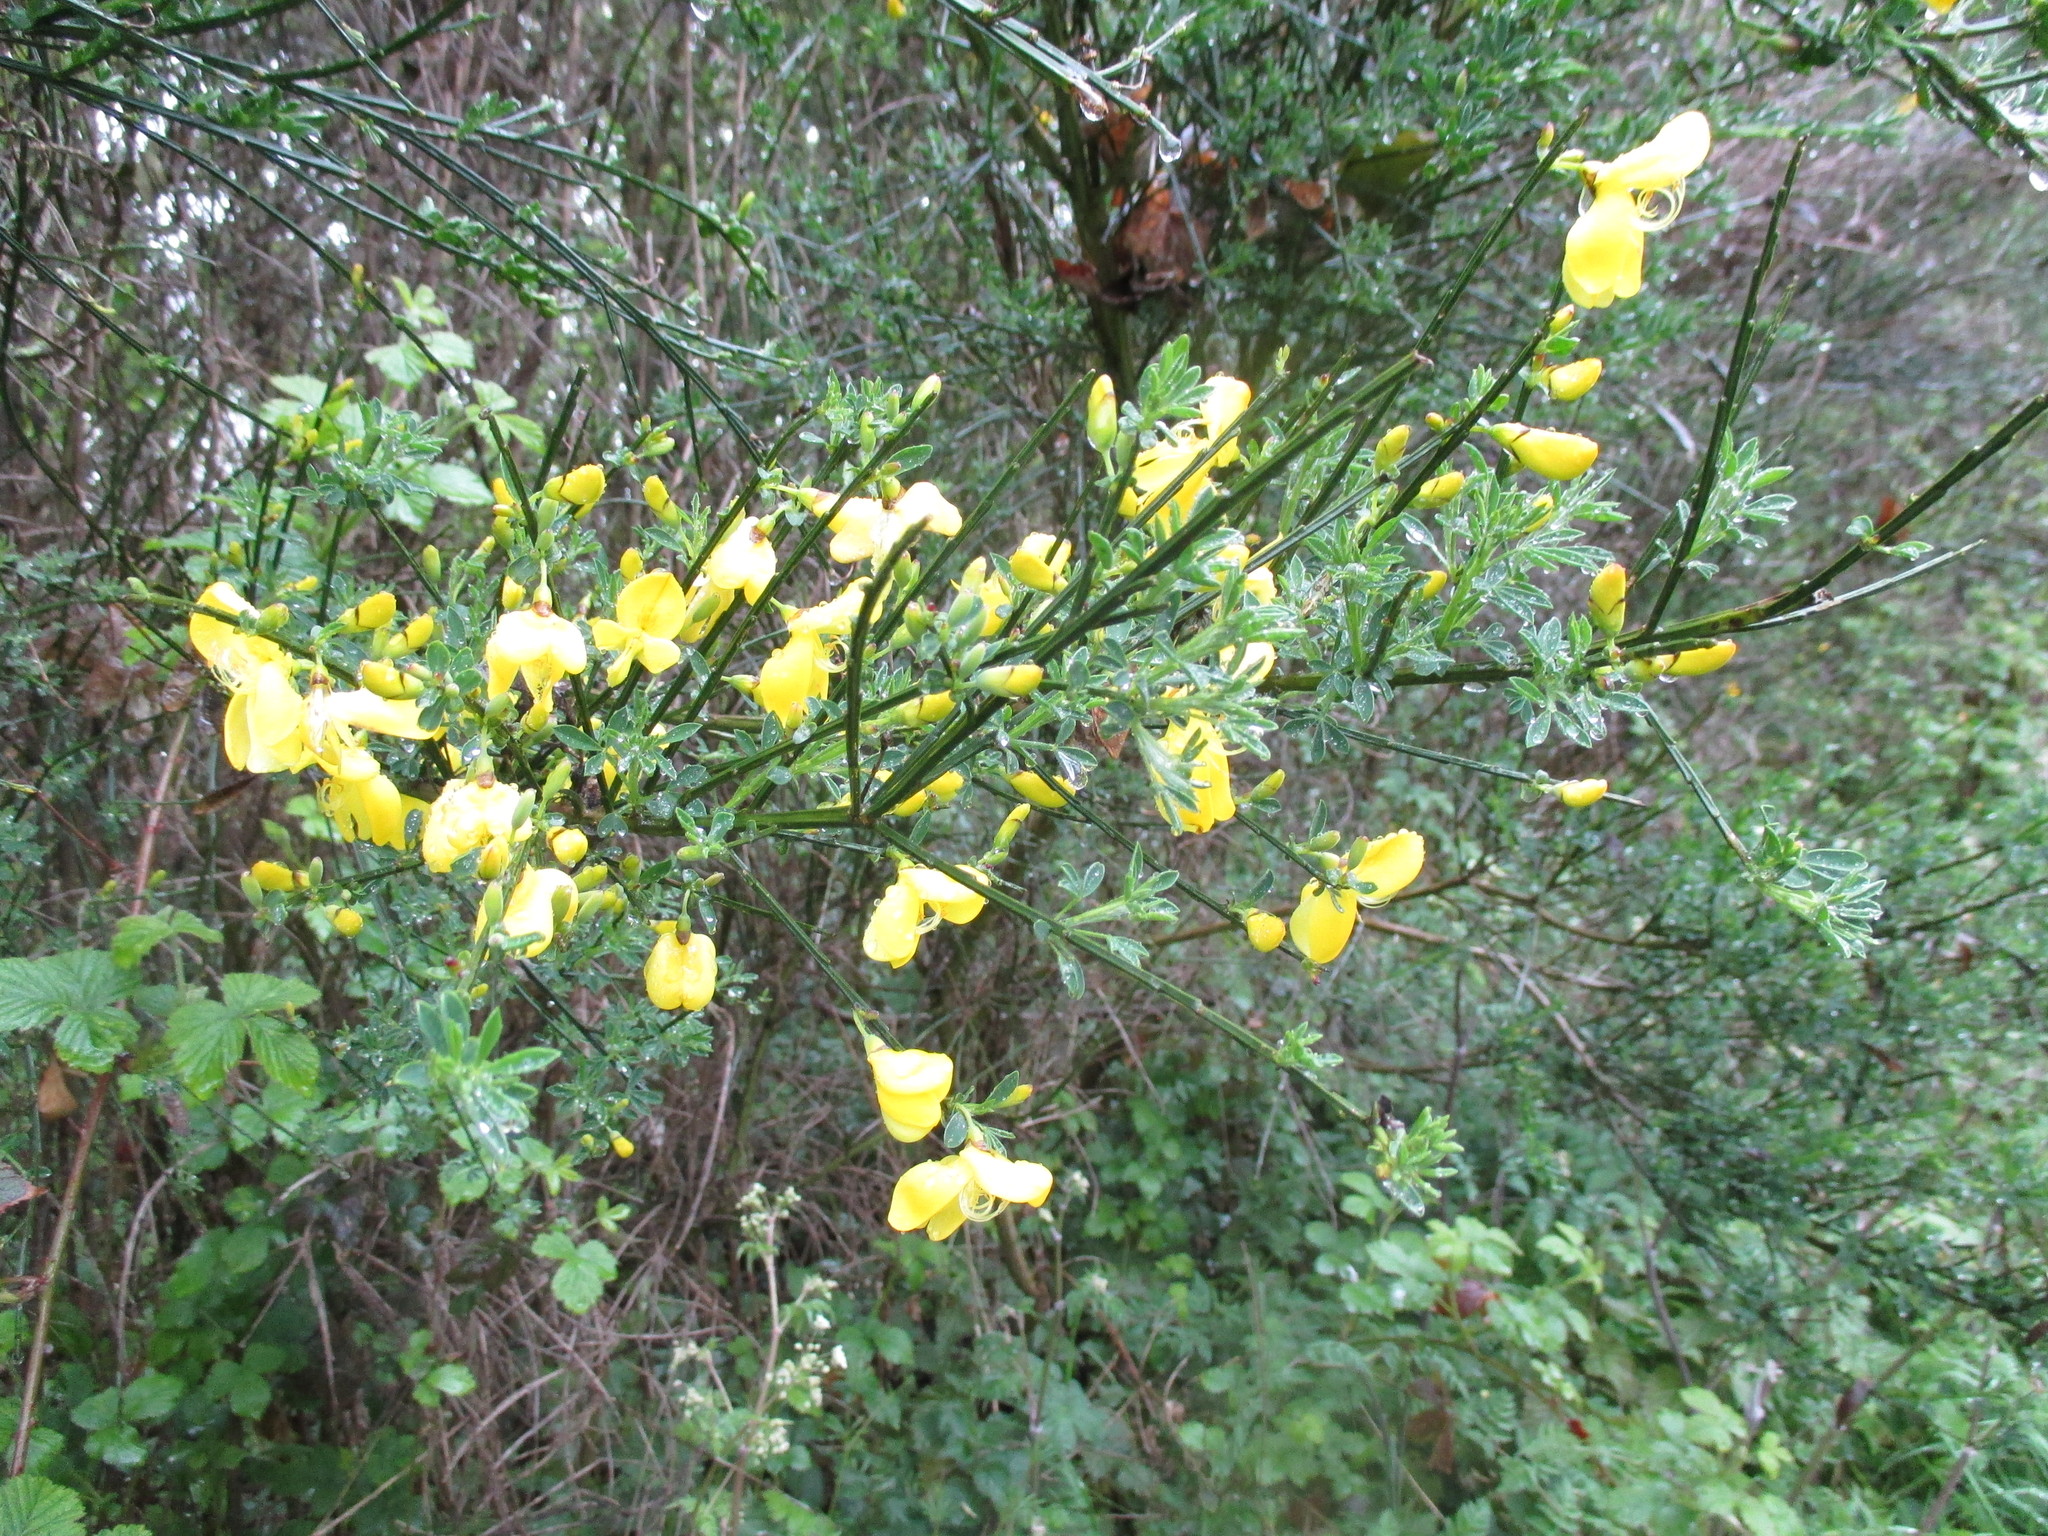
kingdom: Plantae
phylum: Tracheophyta
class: Magnoliopsida
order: Fabales
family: Fabaceae
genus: Cytisus
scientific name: Cytisus scoparius
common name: Scotch broom
